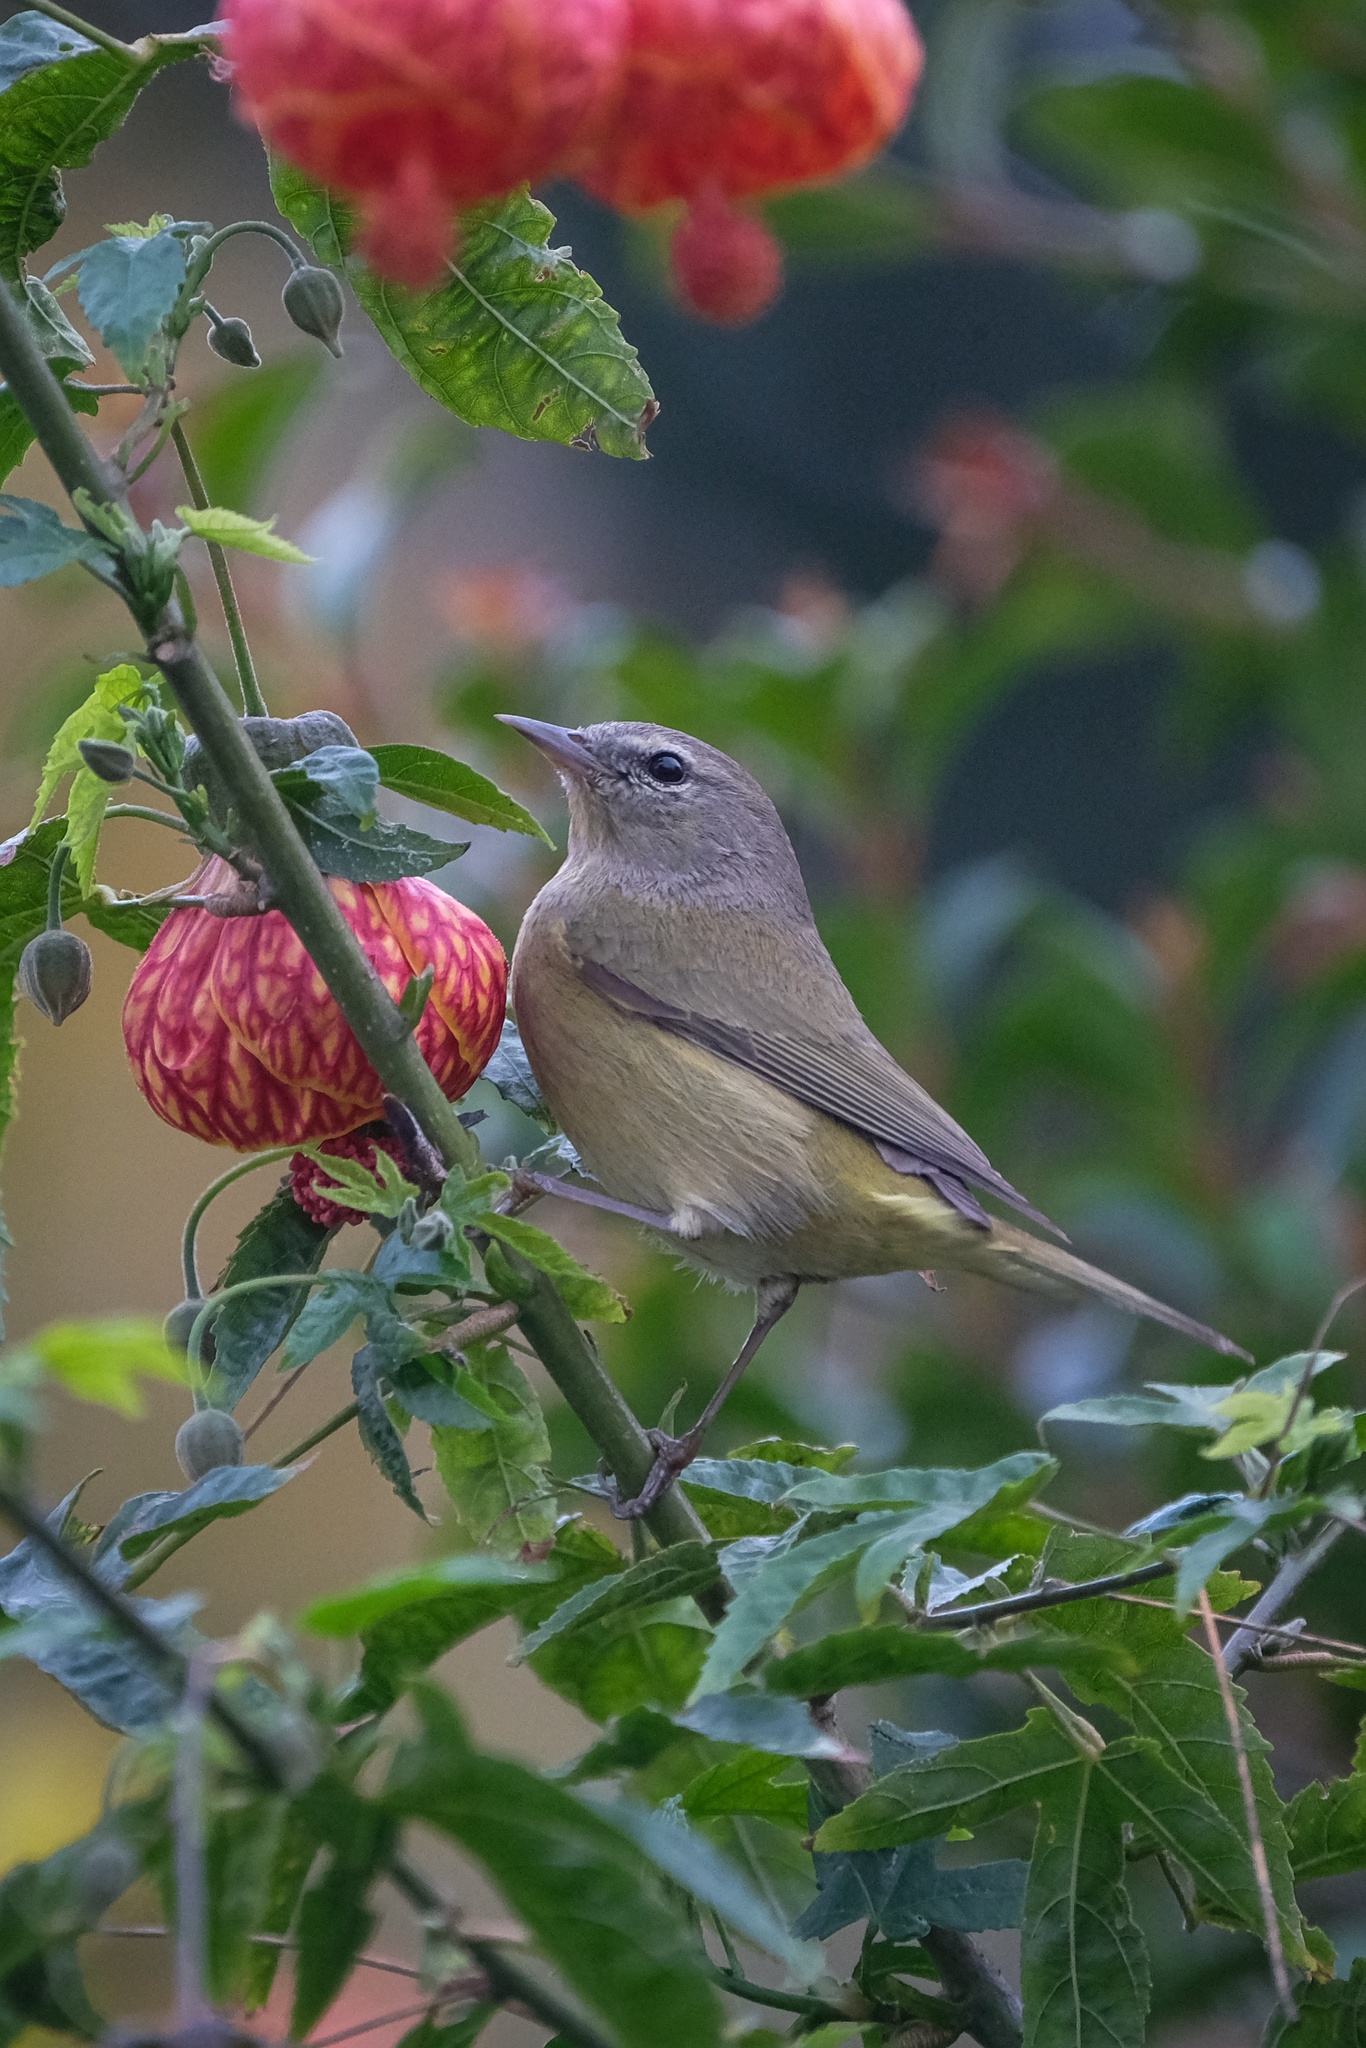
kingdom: Animalia
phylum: Chordata
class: Aves
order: Passeriformes
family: Parulidae
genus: Leiothlypis
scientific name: Leiothlypis celata
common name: Orange-crowned warbler
